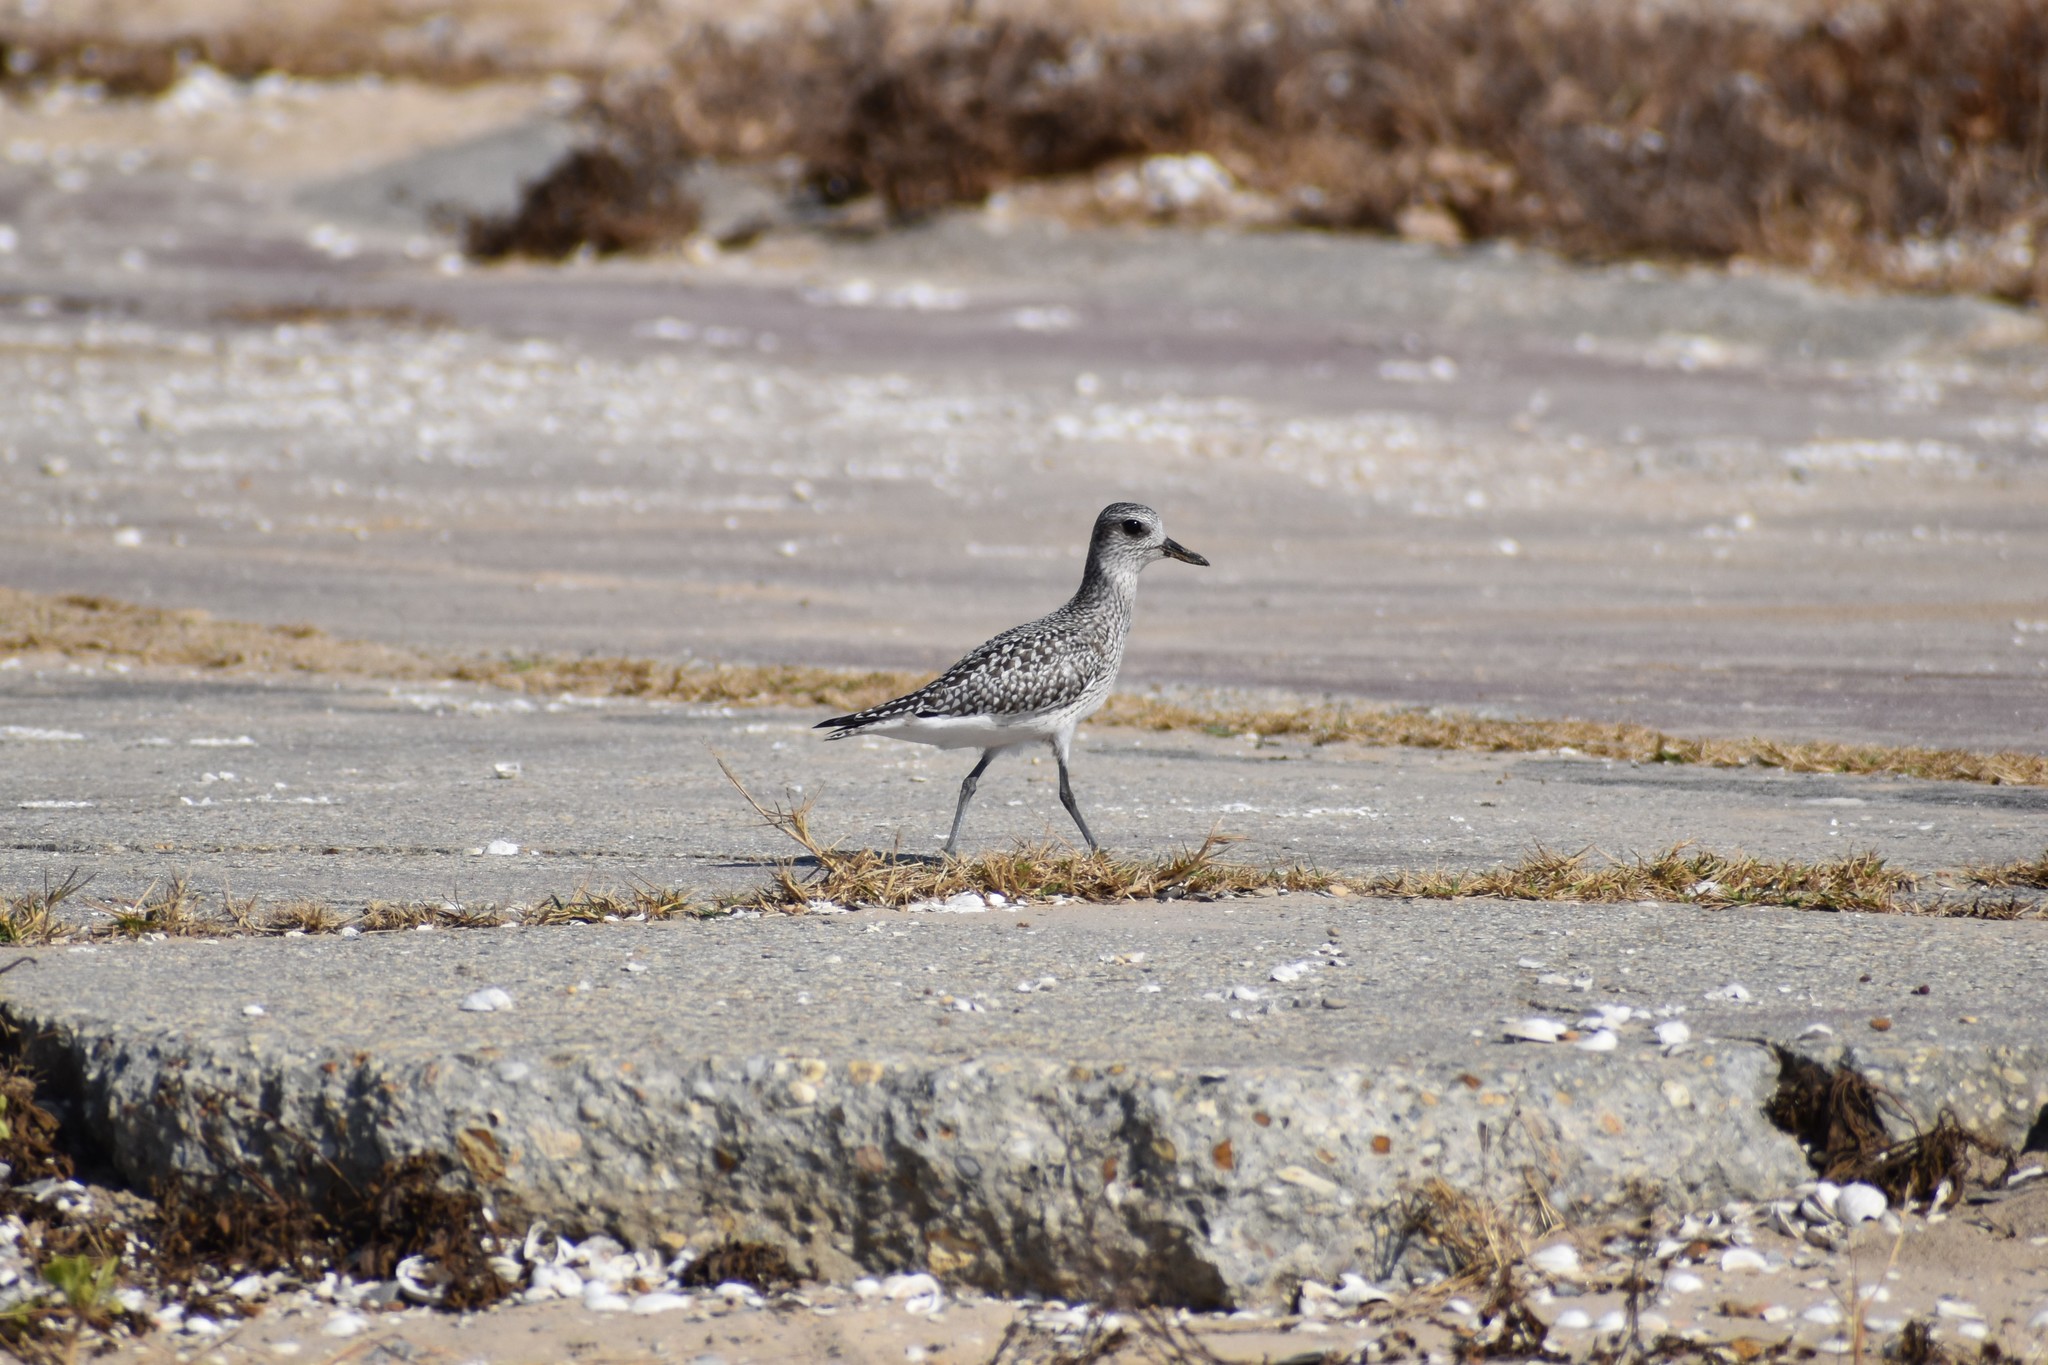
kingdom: Animalia
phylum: Chordata
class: Aves
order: Charadriiformes
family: Charadriidae
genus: Pluvialis
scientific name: Pluvialis squatarola
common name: Grey plover
